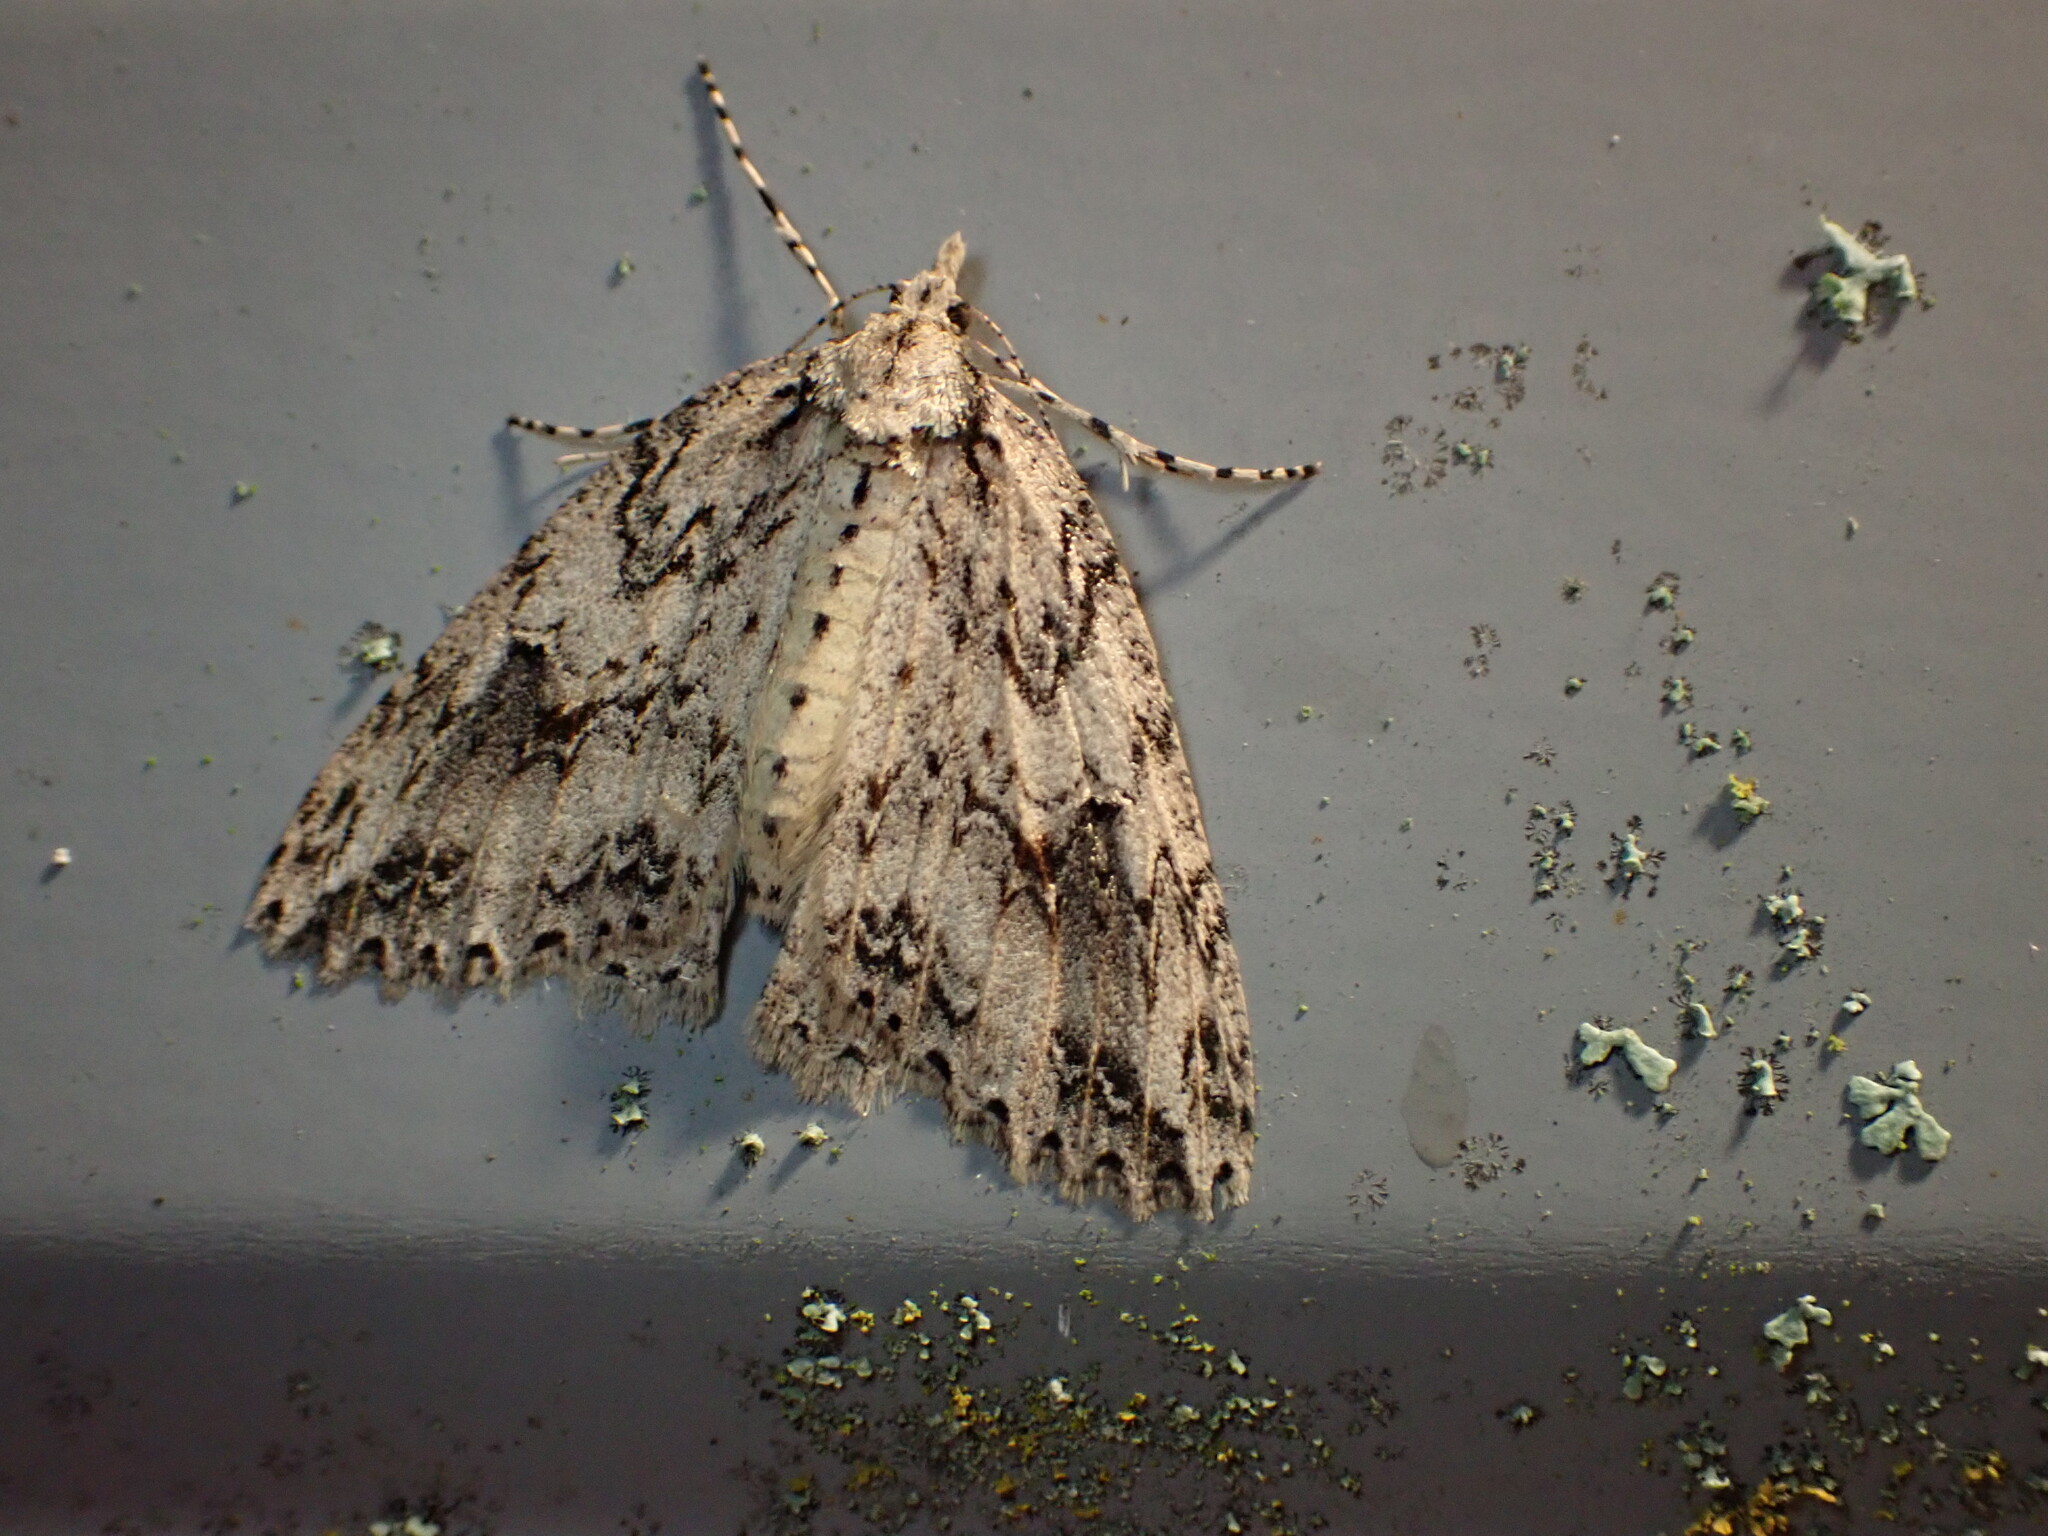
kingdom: Animalia
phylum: Arthropoda
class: Insecta
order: Lepidoptera
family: Geometridae
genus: Pseudocoremia
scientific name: Pseudocoremia rudisata
